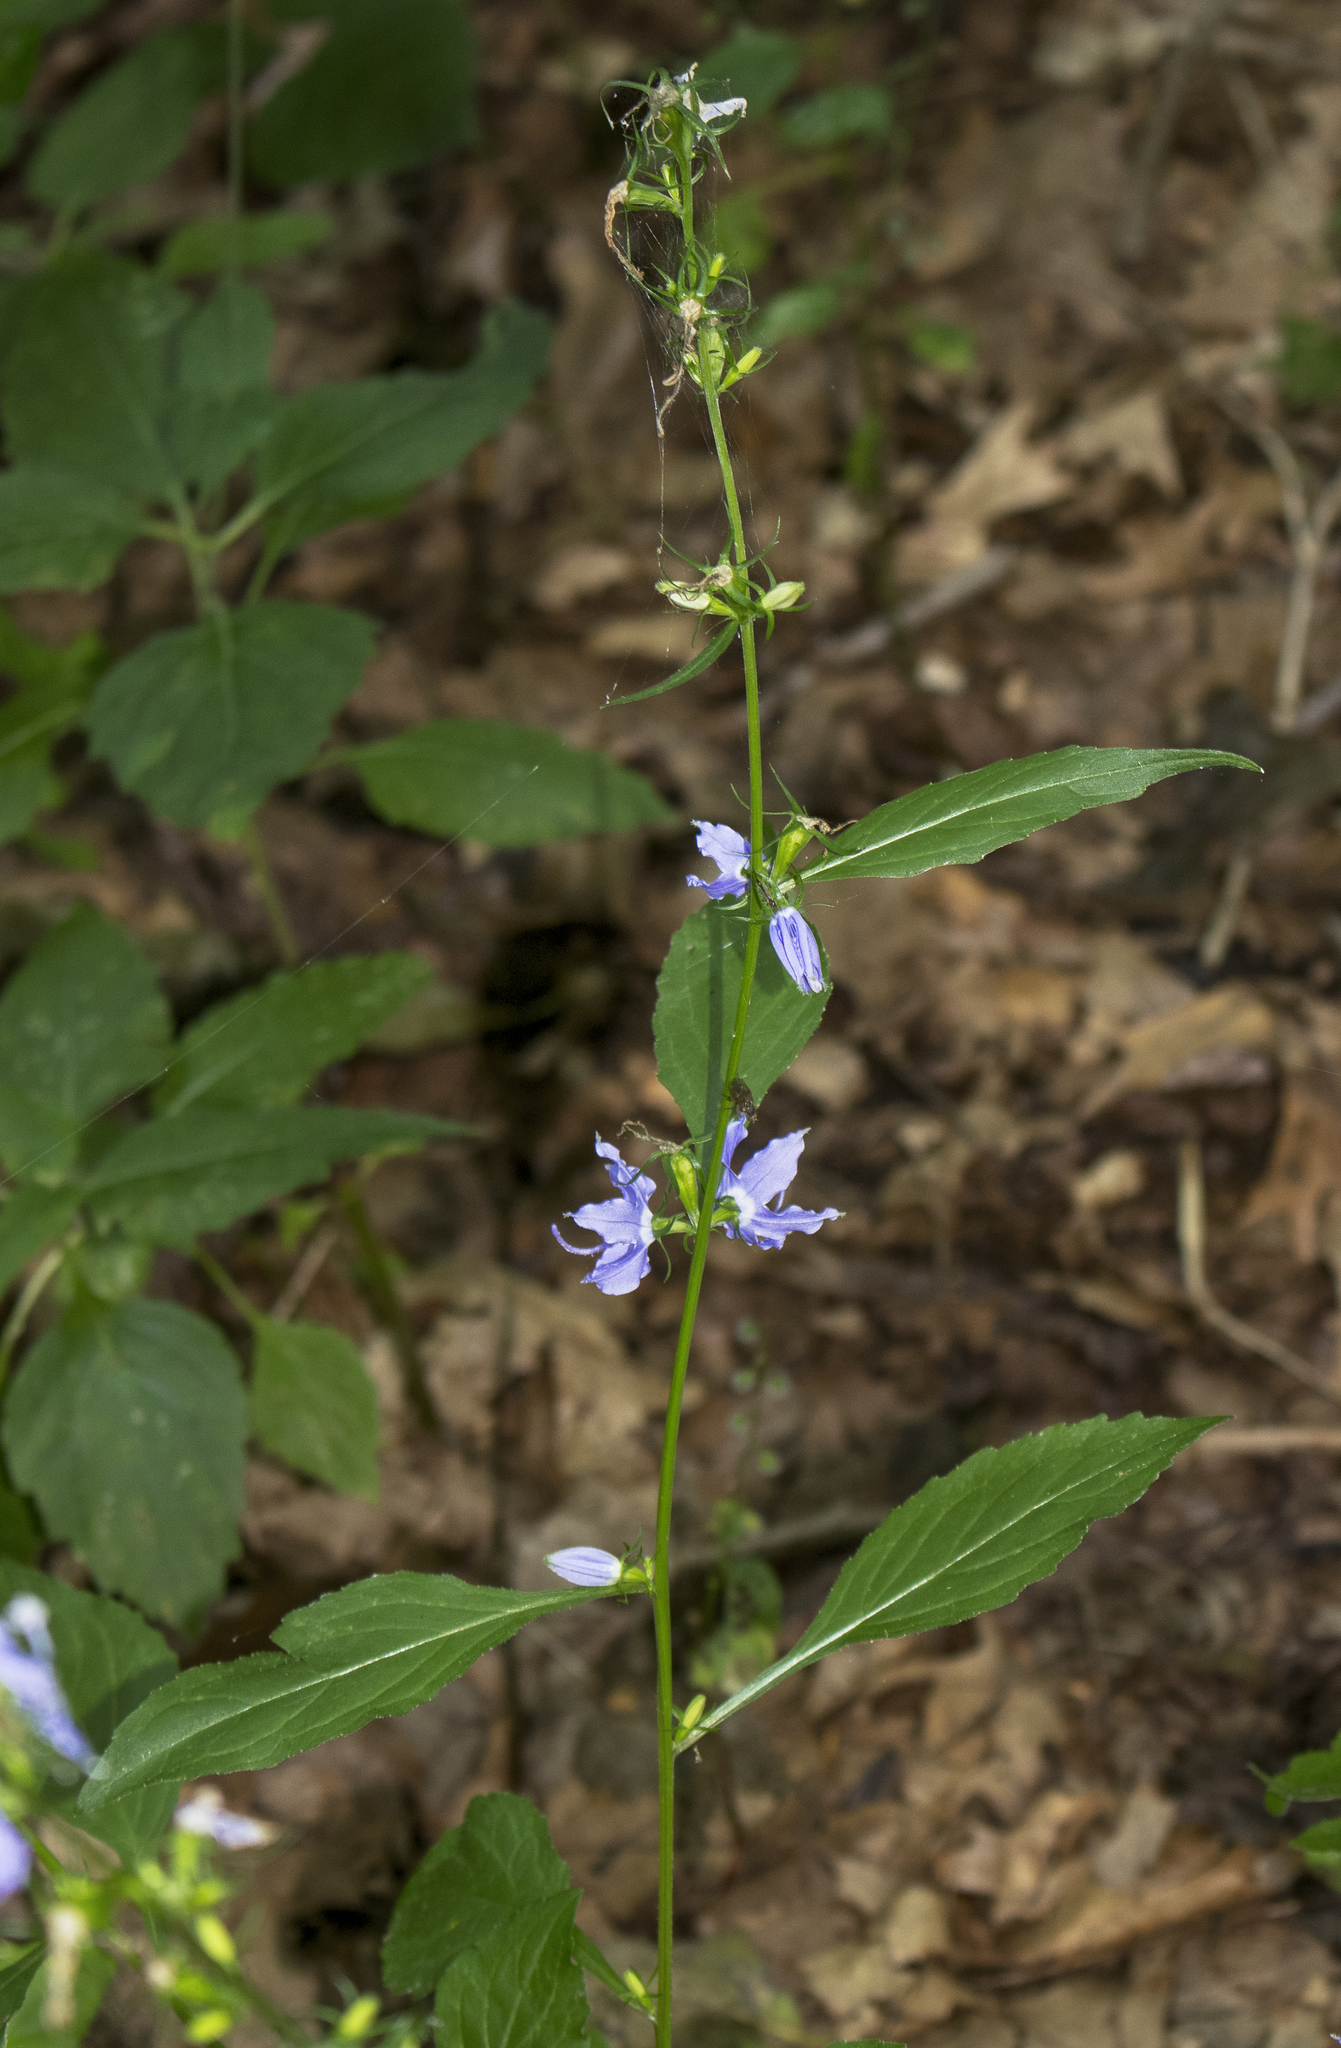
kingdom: Plantae
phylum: Tracheophyta
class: Magnoliopsida
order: Asterales
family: Campanulaceae
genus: Campanulastrum
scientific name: Campanulastrum americanum
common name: American bellflower
